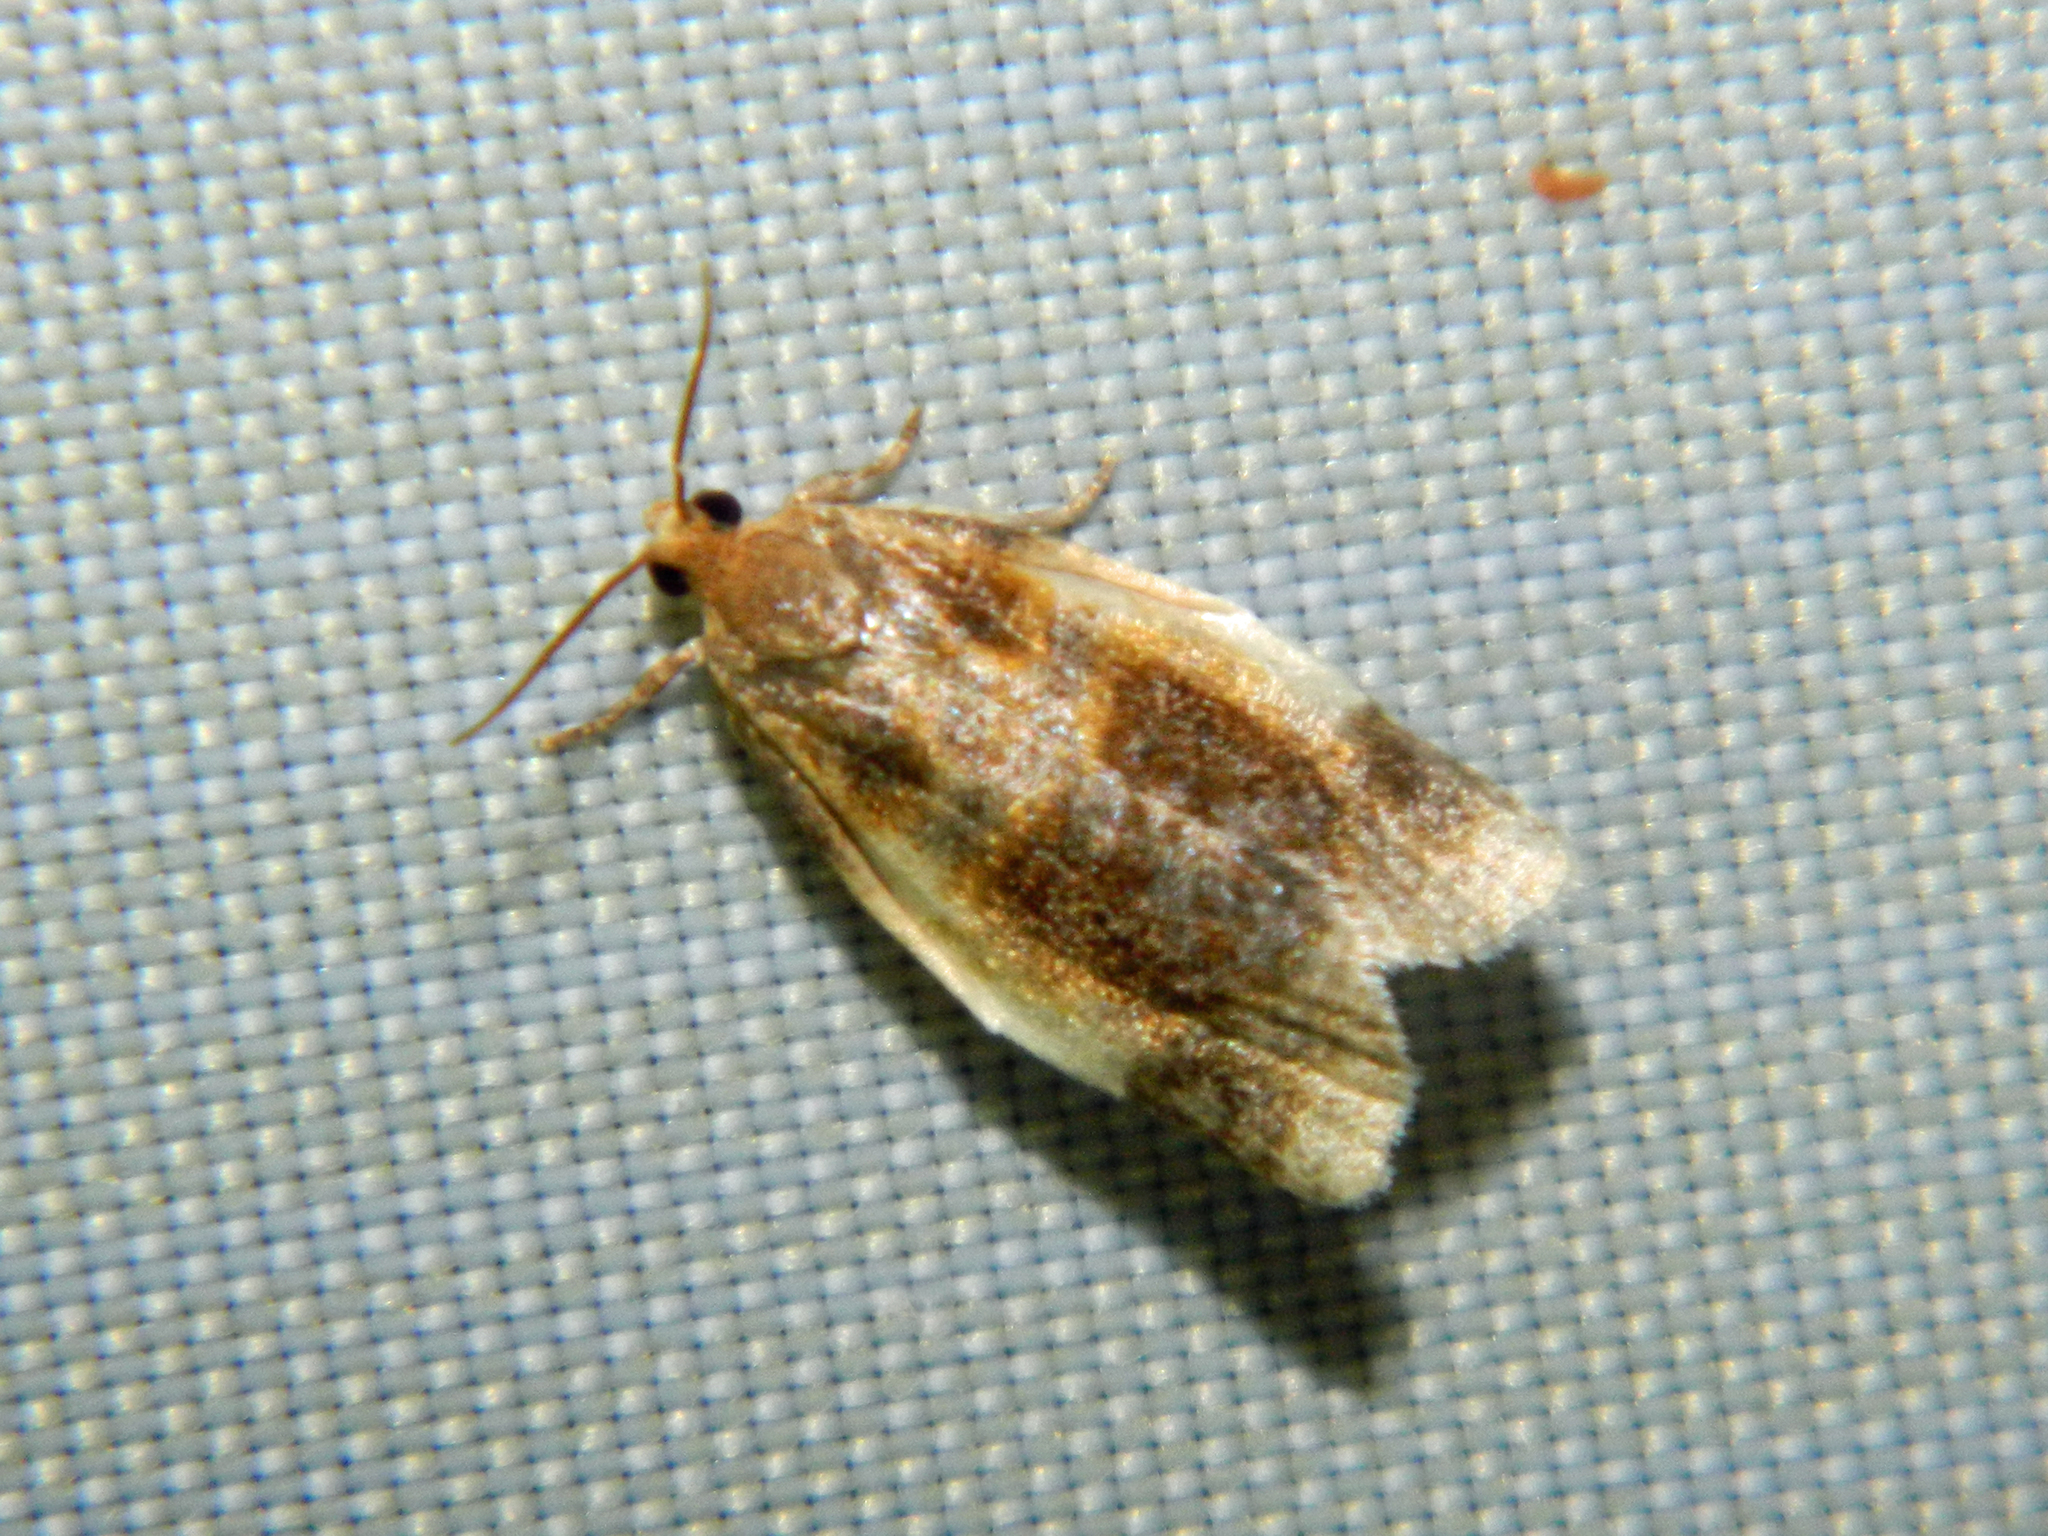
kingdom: Animalia
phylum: Arthropoda
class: Insecta
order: Lepidoptera
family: Tortricidae
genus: Clepsis
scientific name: Clepsis melaleucanus
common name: American apple tortrix
